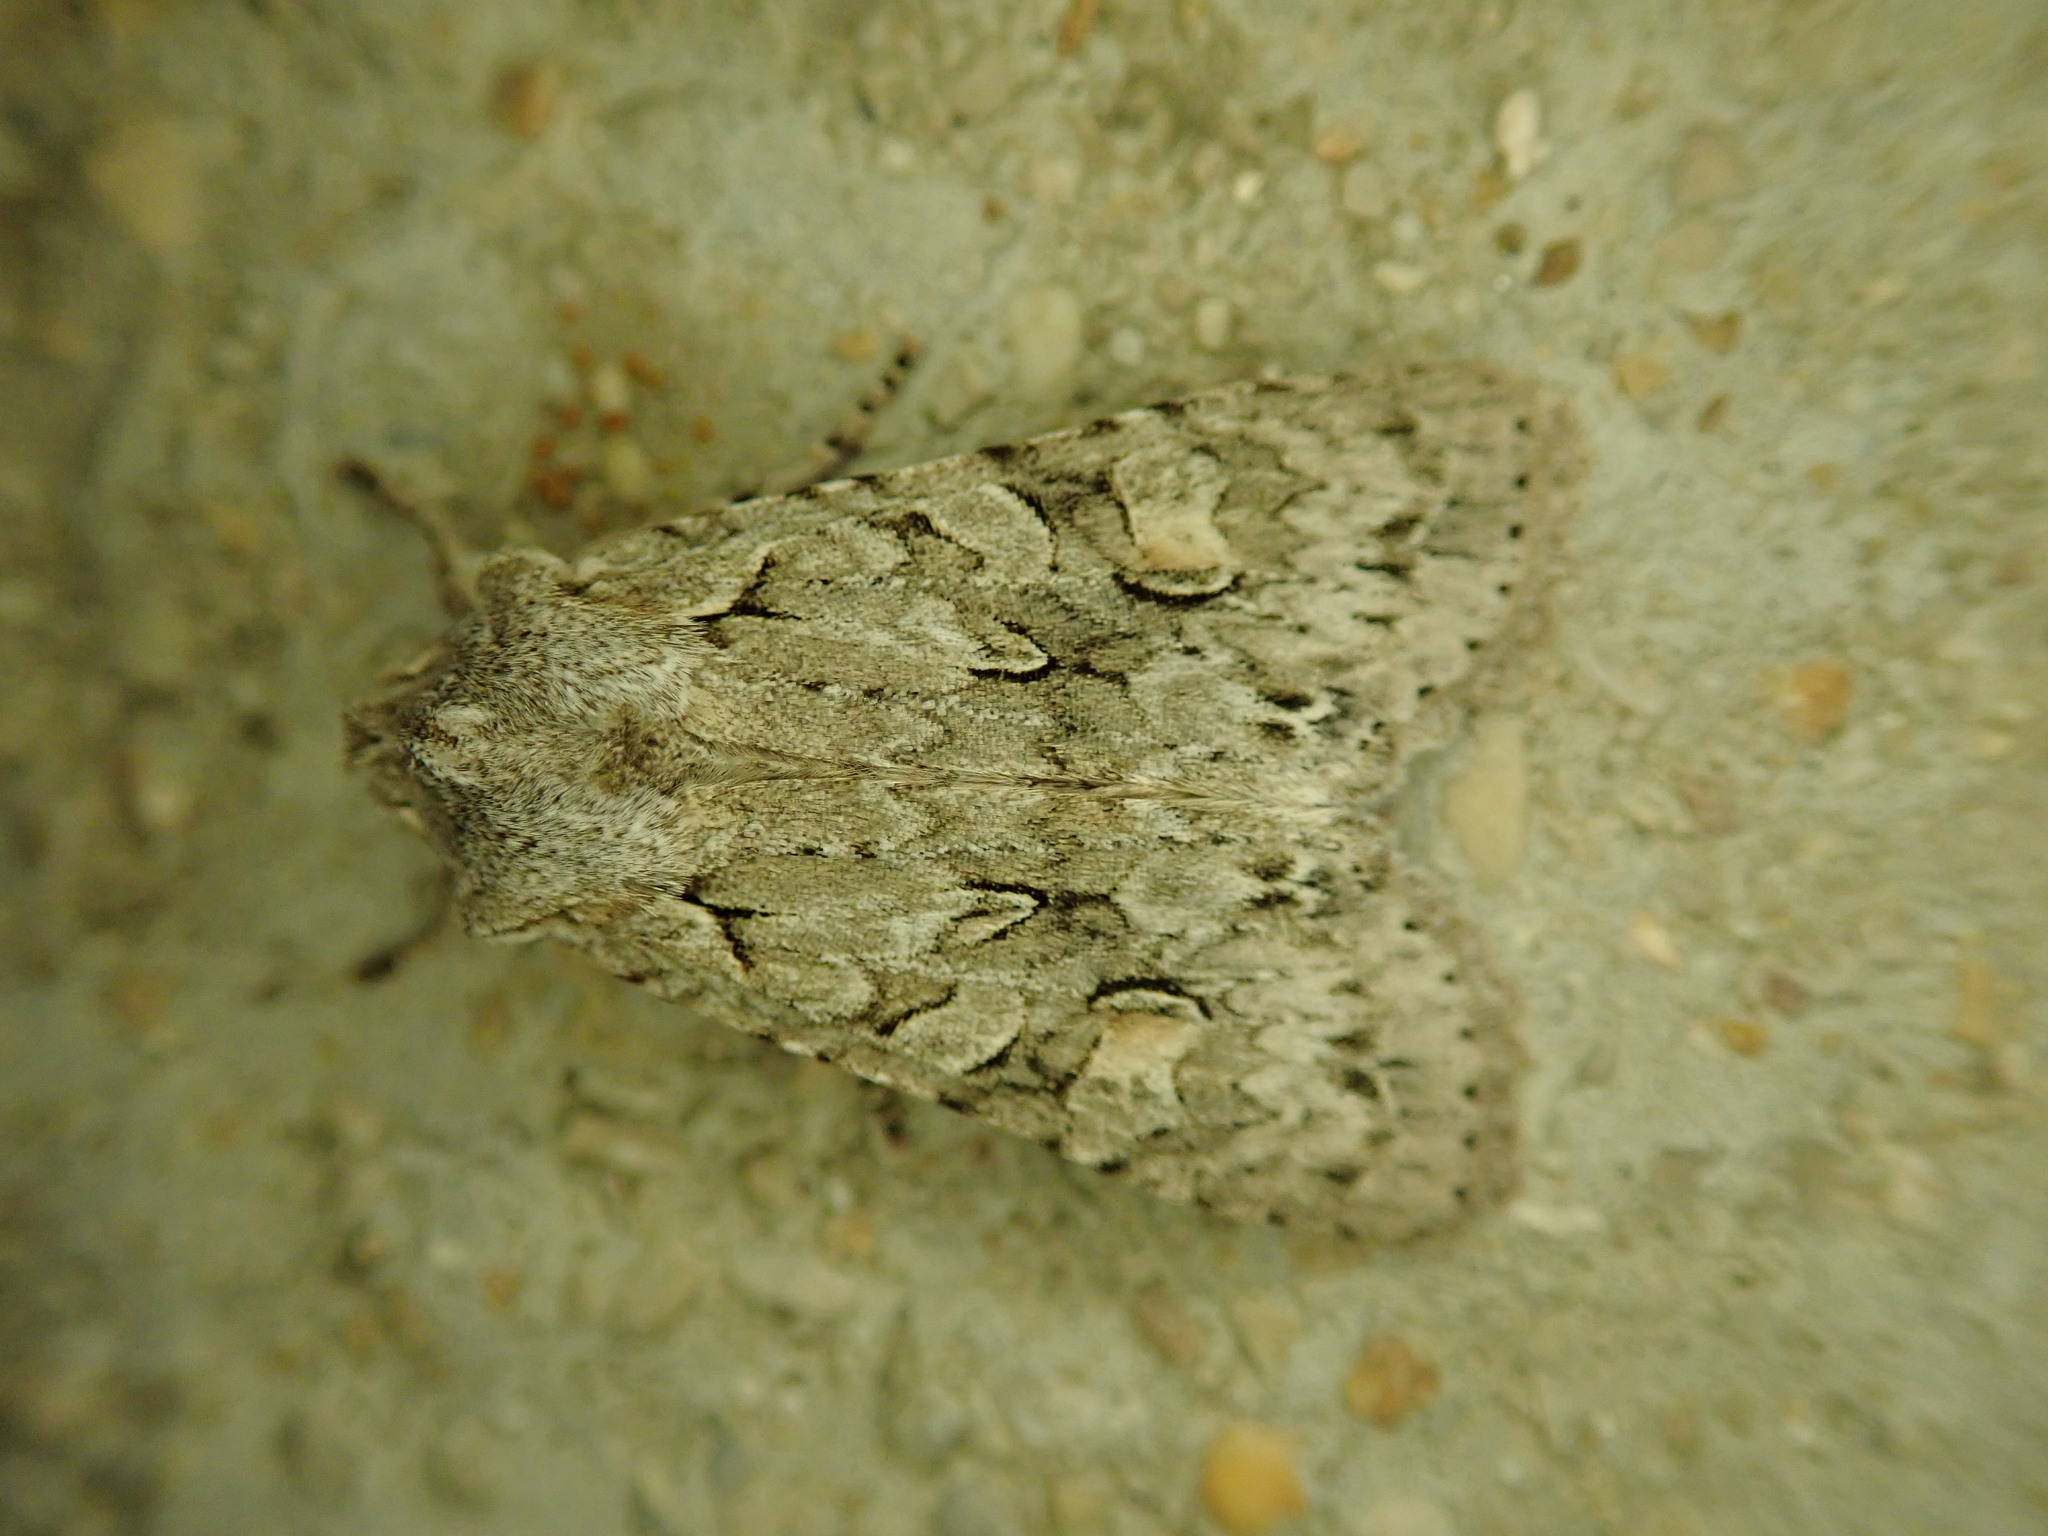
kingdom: Animalia
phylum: Arthropoda
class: Insecta
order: Lepidoptera
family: Noctuidae
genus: Lithophane
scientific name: Lithophane ornitopus
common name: Grey shoulder-knot
